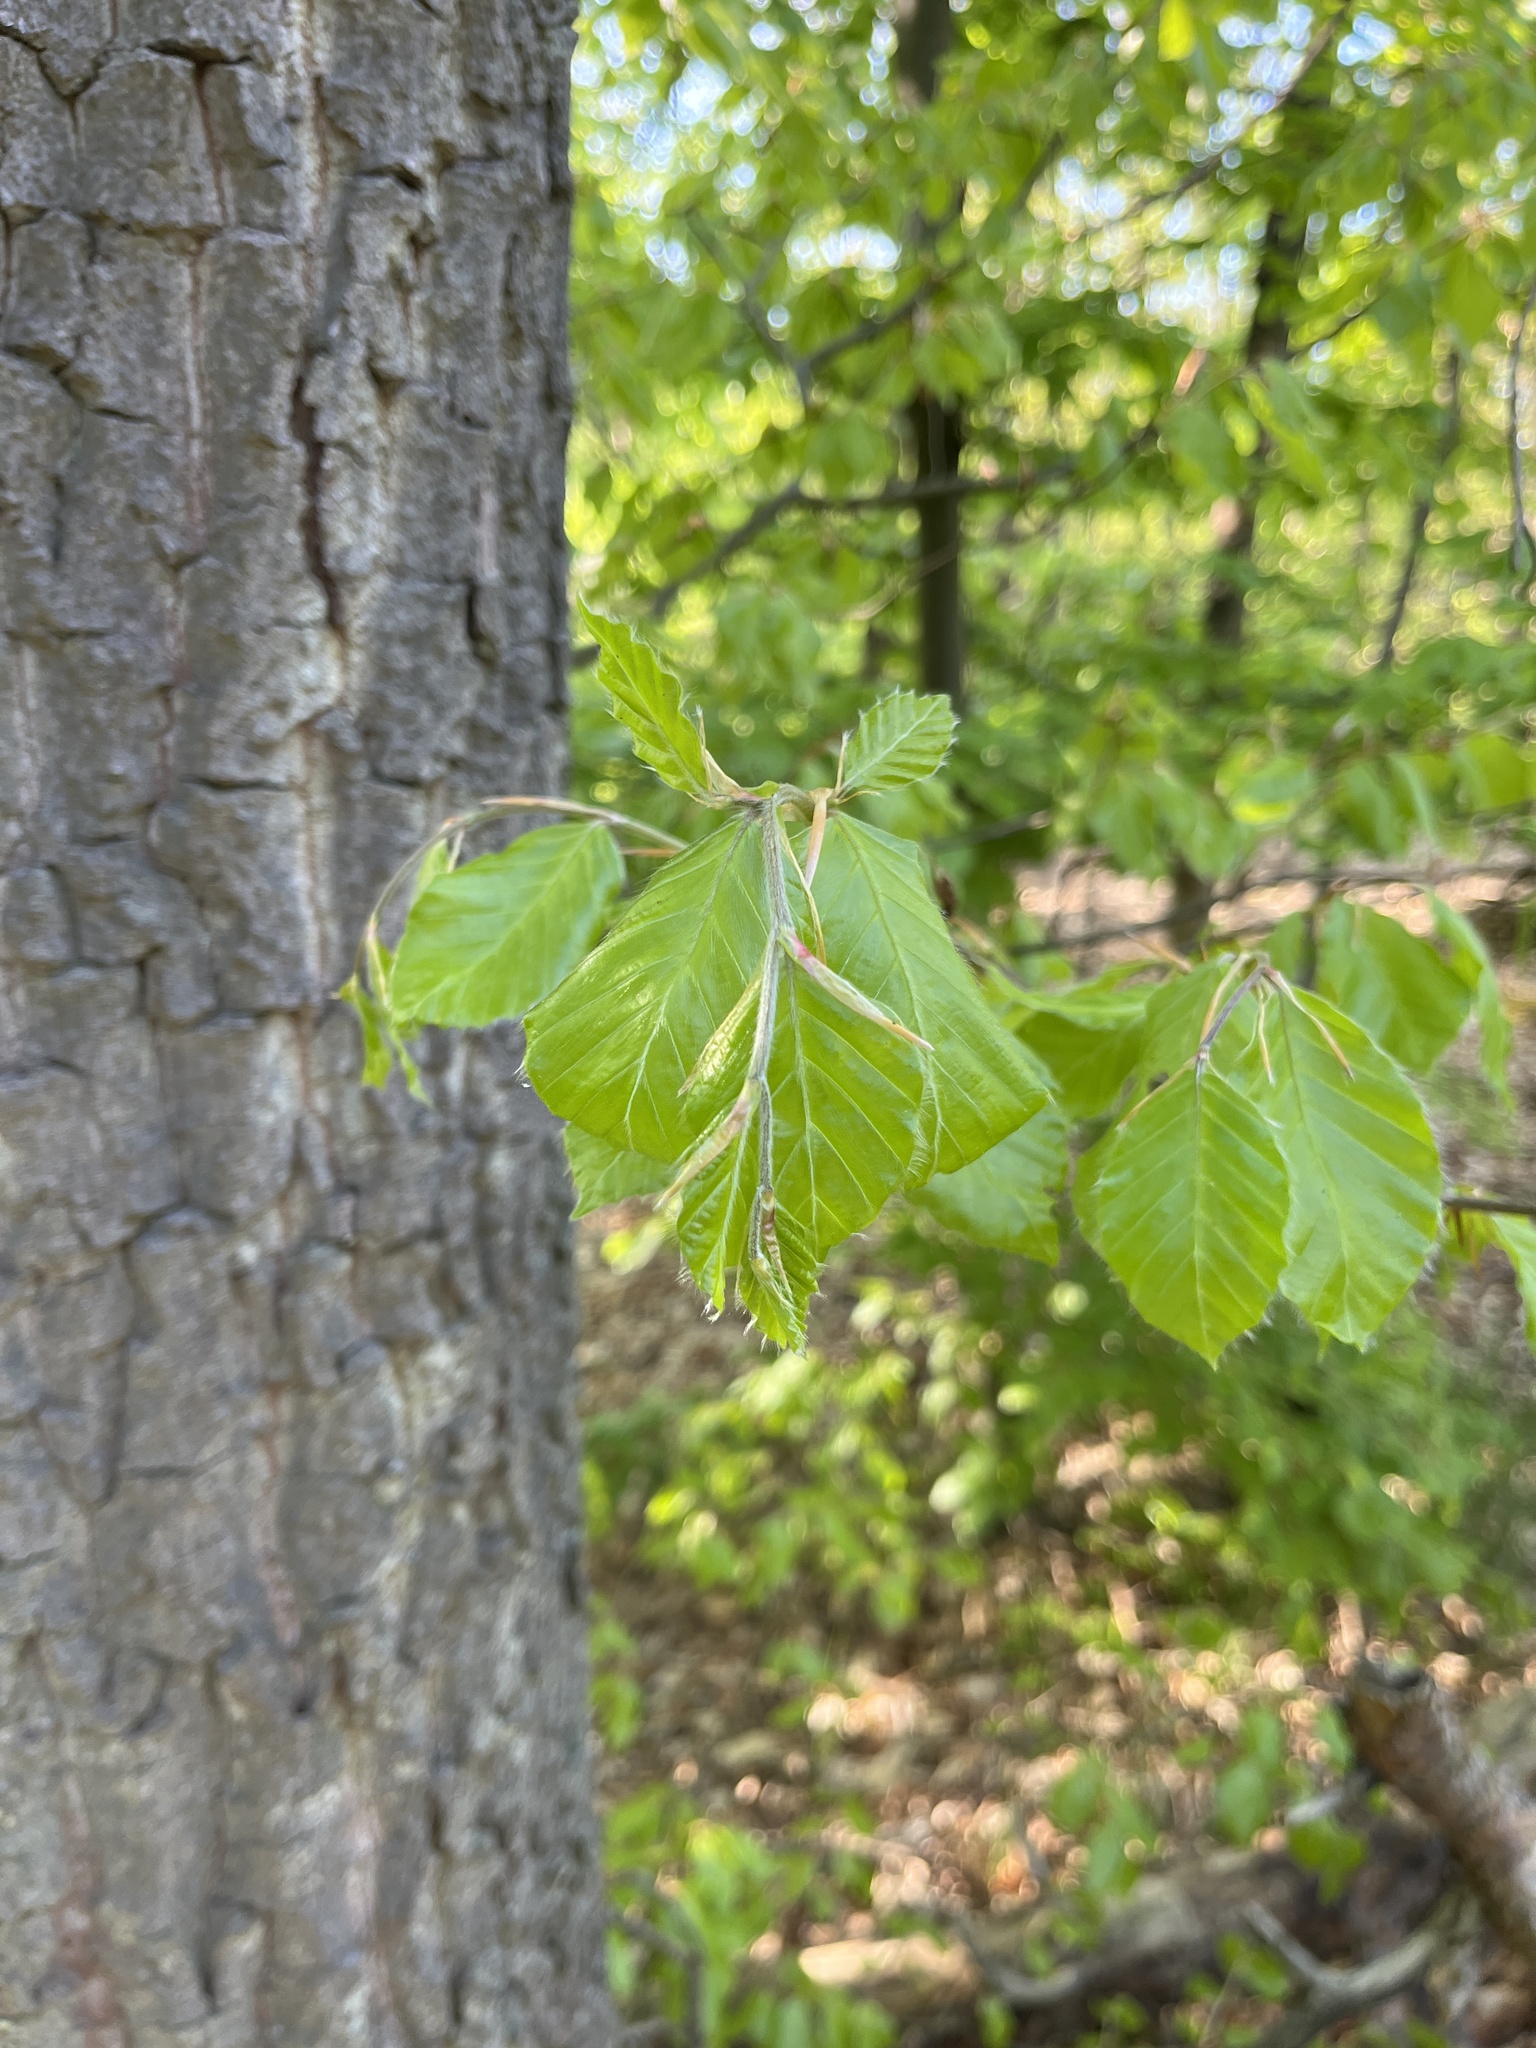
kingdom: Plantae
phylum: Tracheophyta
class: Magnoliopsida
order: Fagales
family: Fagaceae
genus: Fagus
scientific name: Fagus sylvatica
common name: Beech
